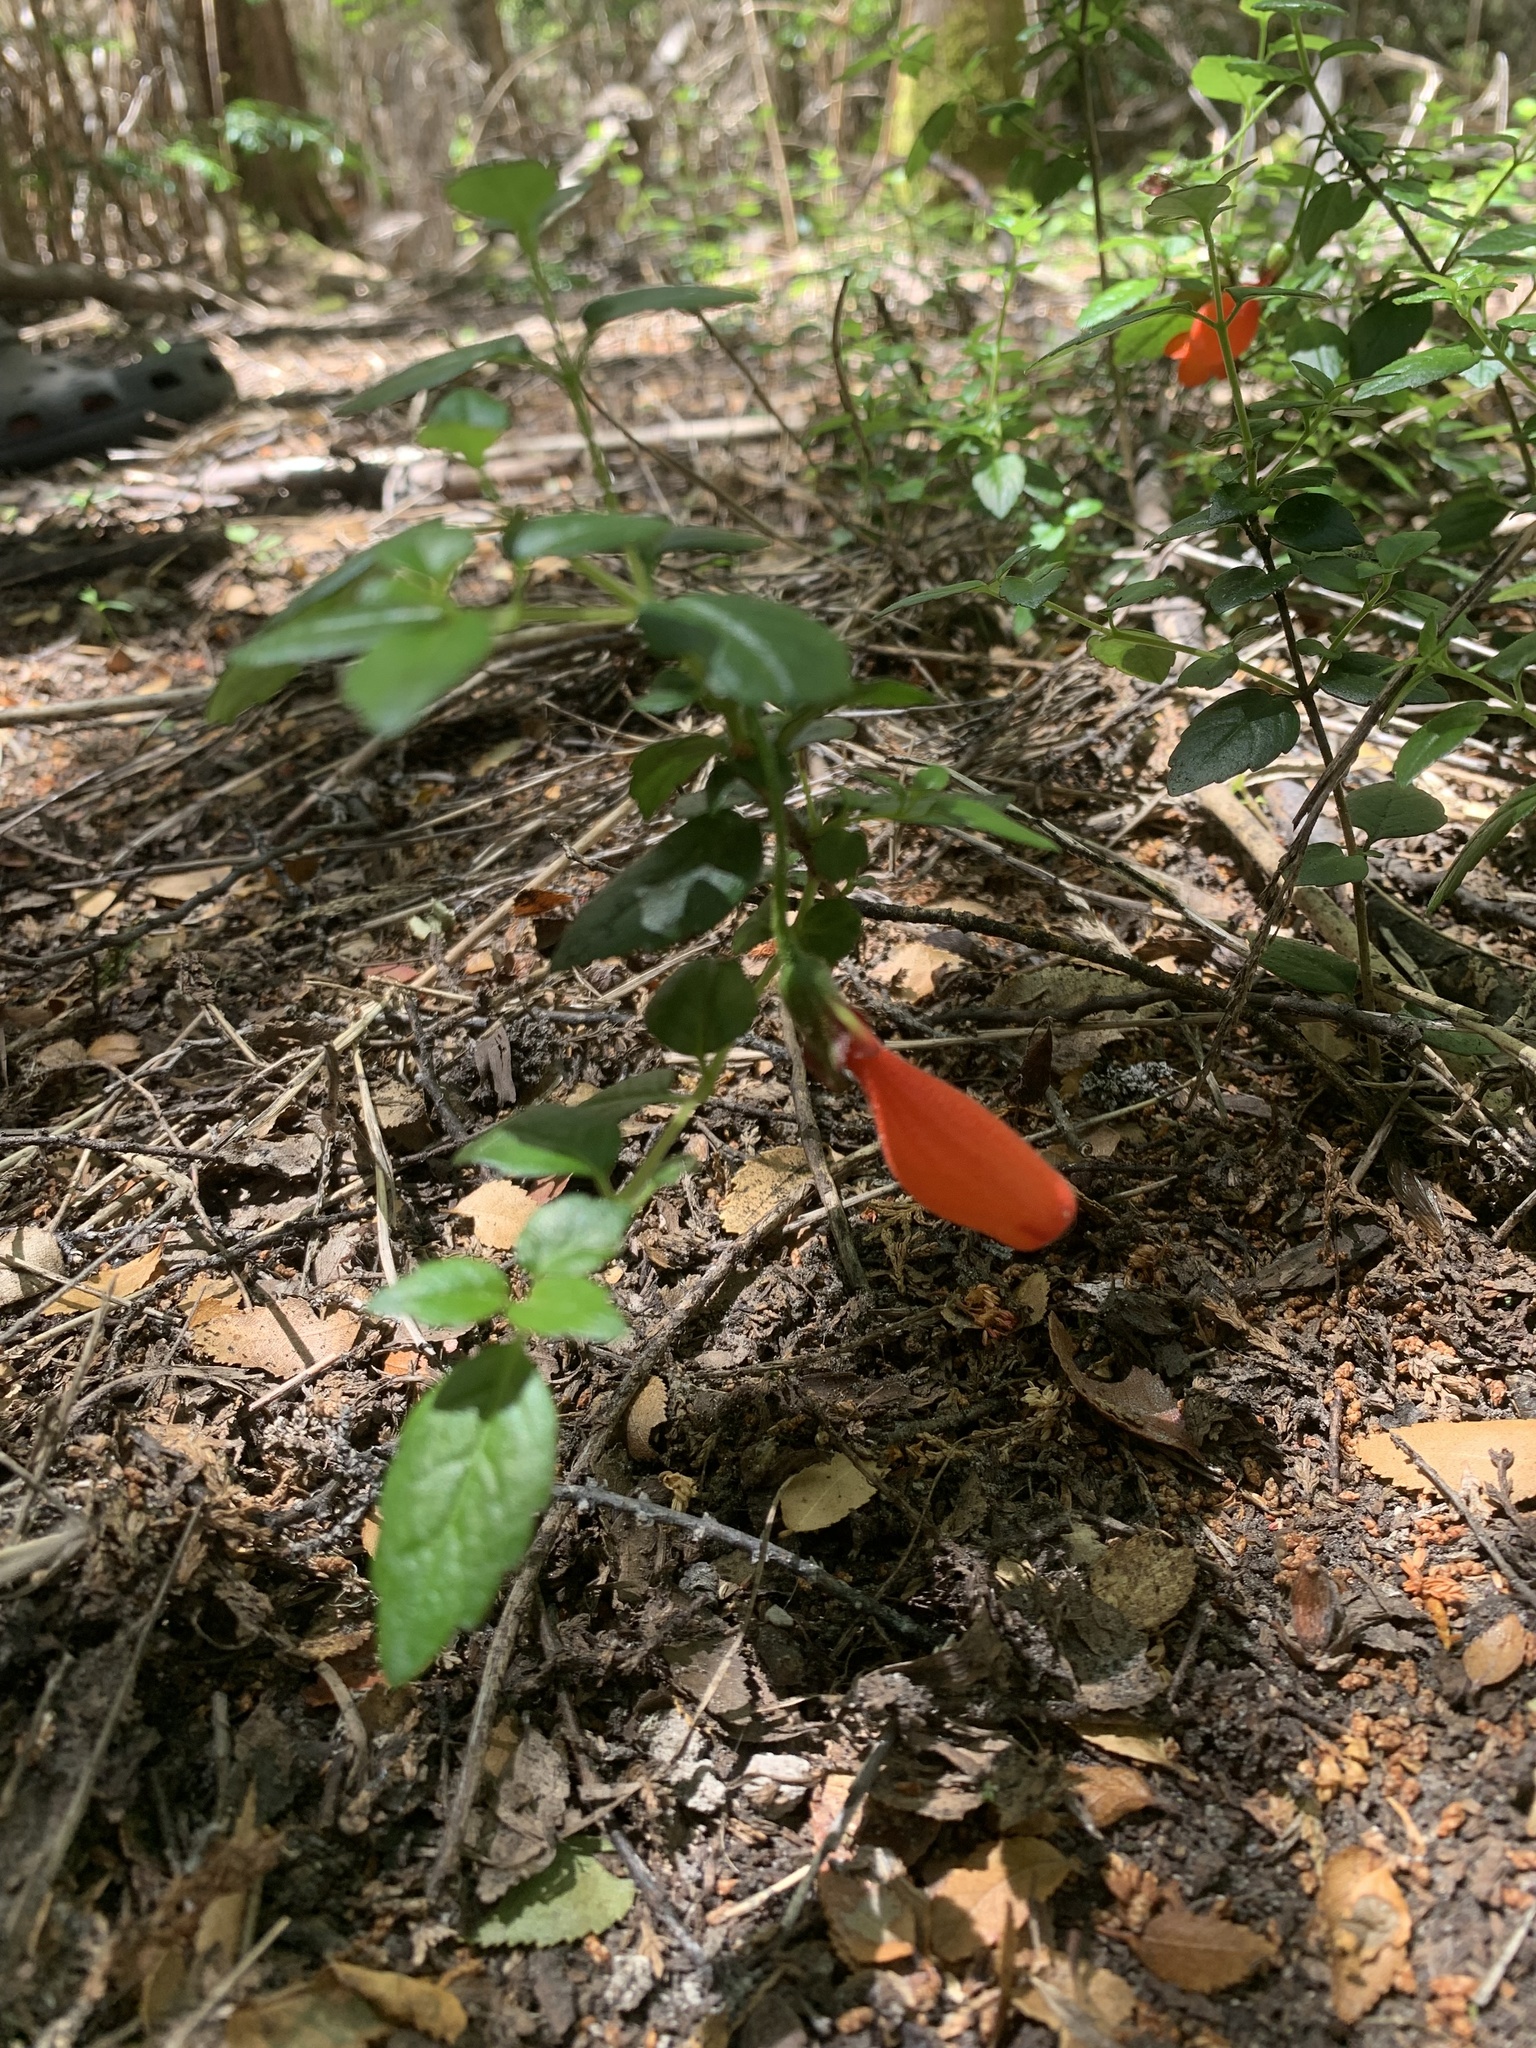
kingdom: Plantae
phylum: Tracheophyta
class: Magnoliopsida
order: Lamiales
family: Gesneriaceae
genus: Mitraria
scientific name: Mitraria coccinea
